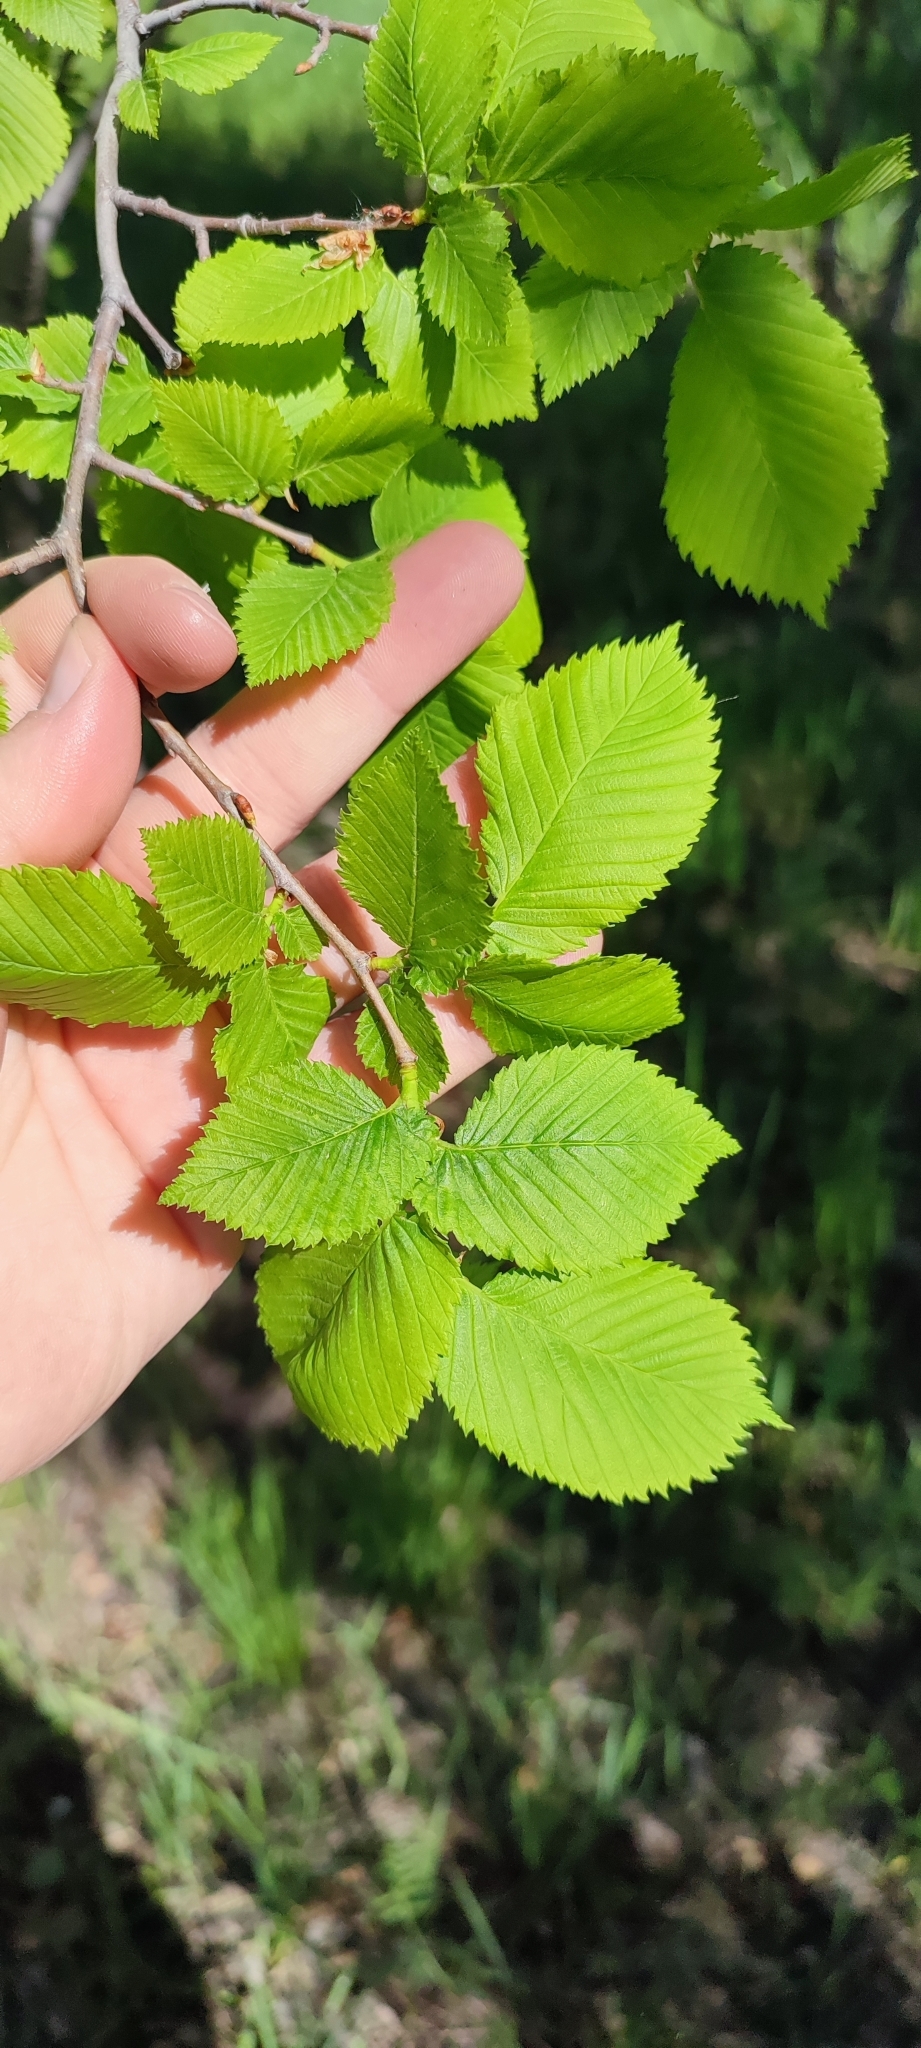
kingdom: Plantae
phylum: Tracheophyta
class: Magnoliopsida
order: Rosales
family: Ulmaceae
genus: Ulmus
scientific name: Ulmus laevis
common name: European white-elm
